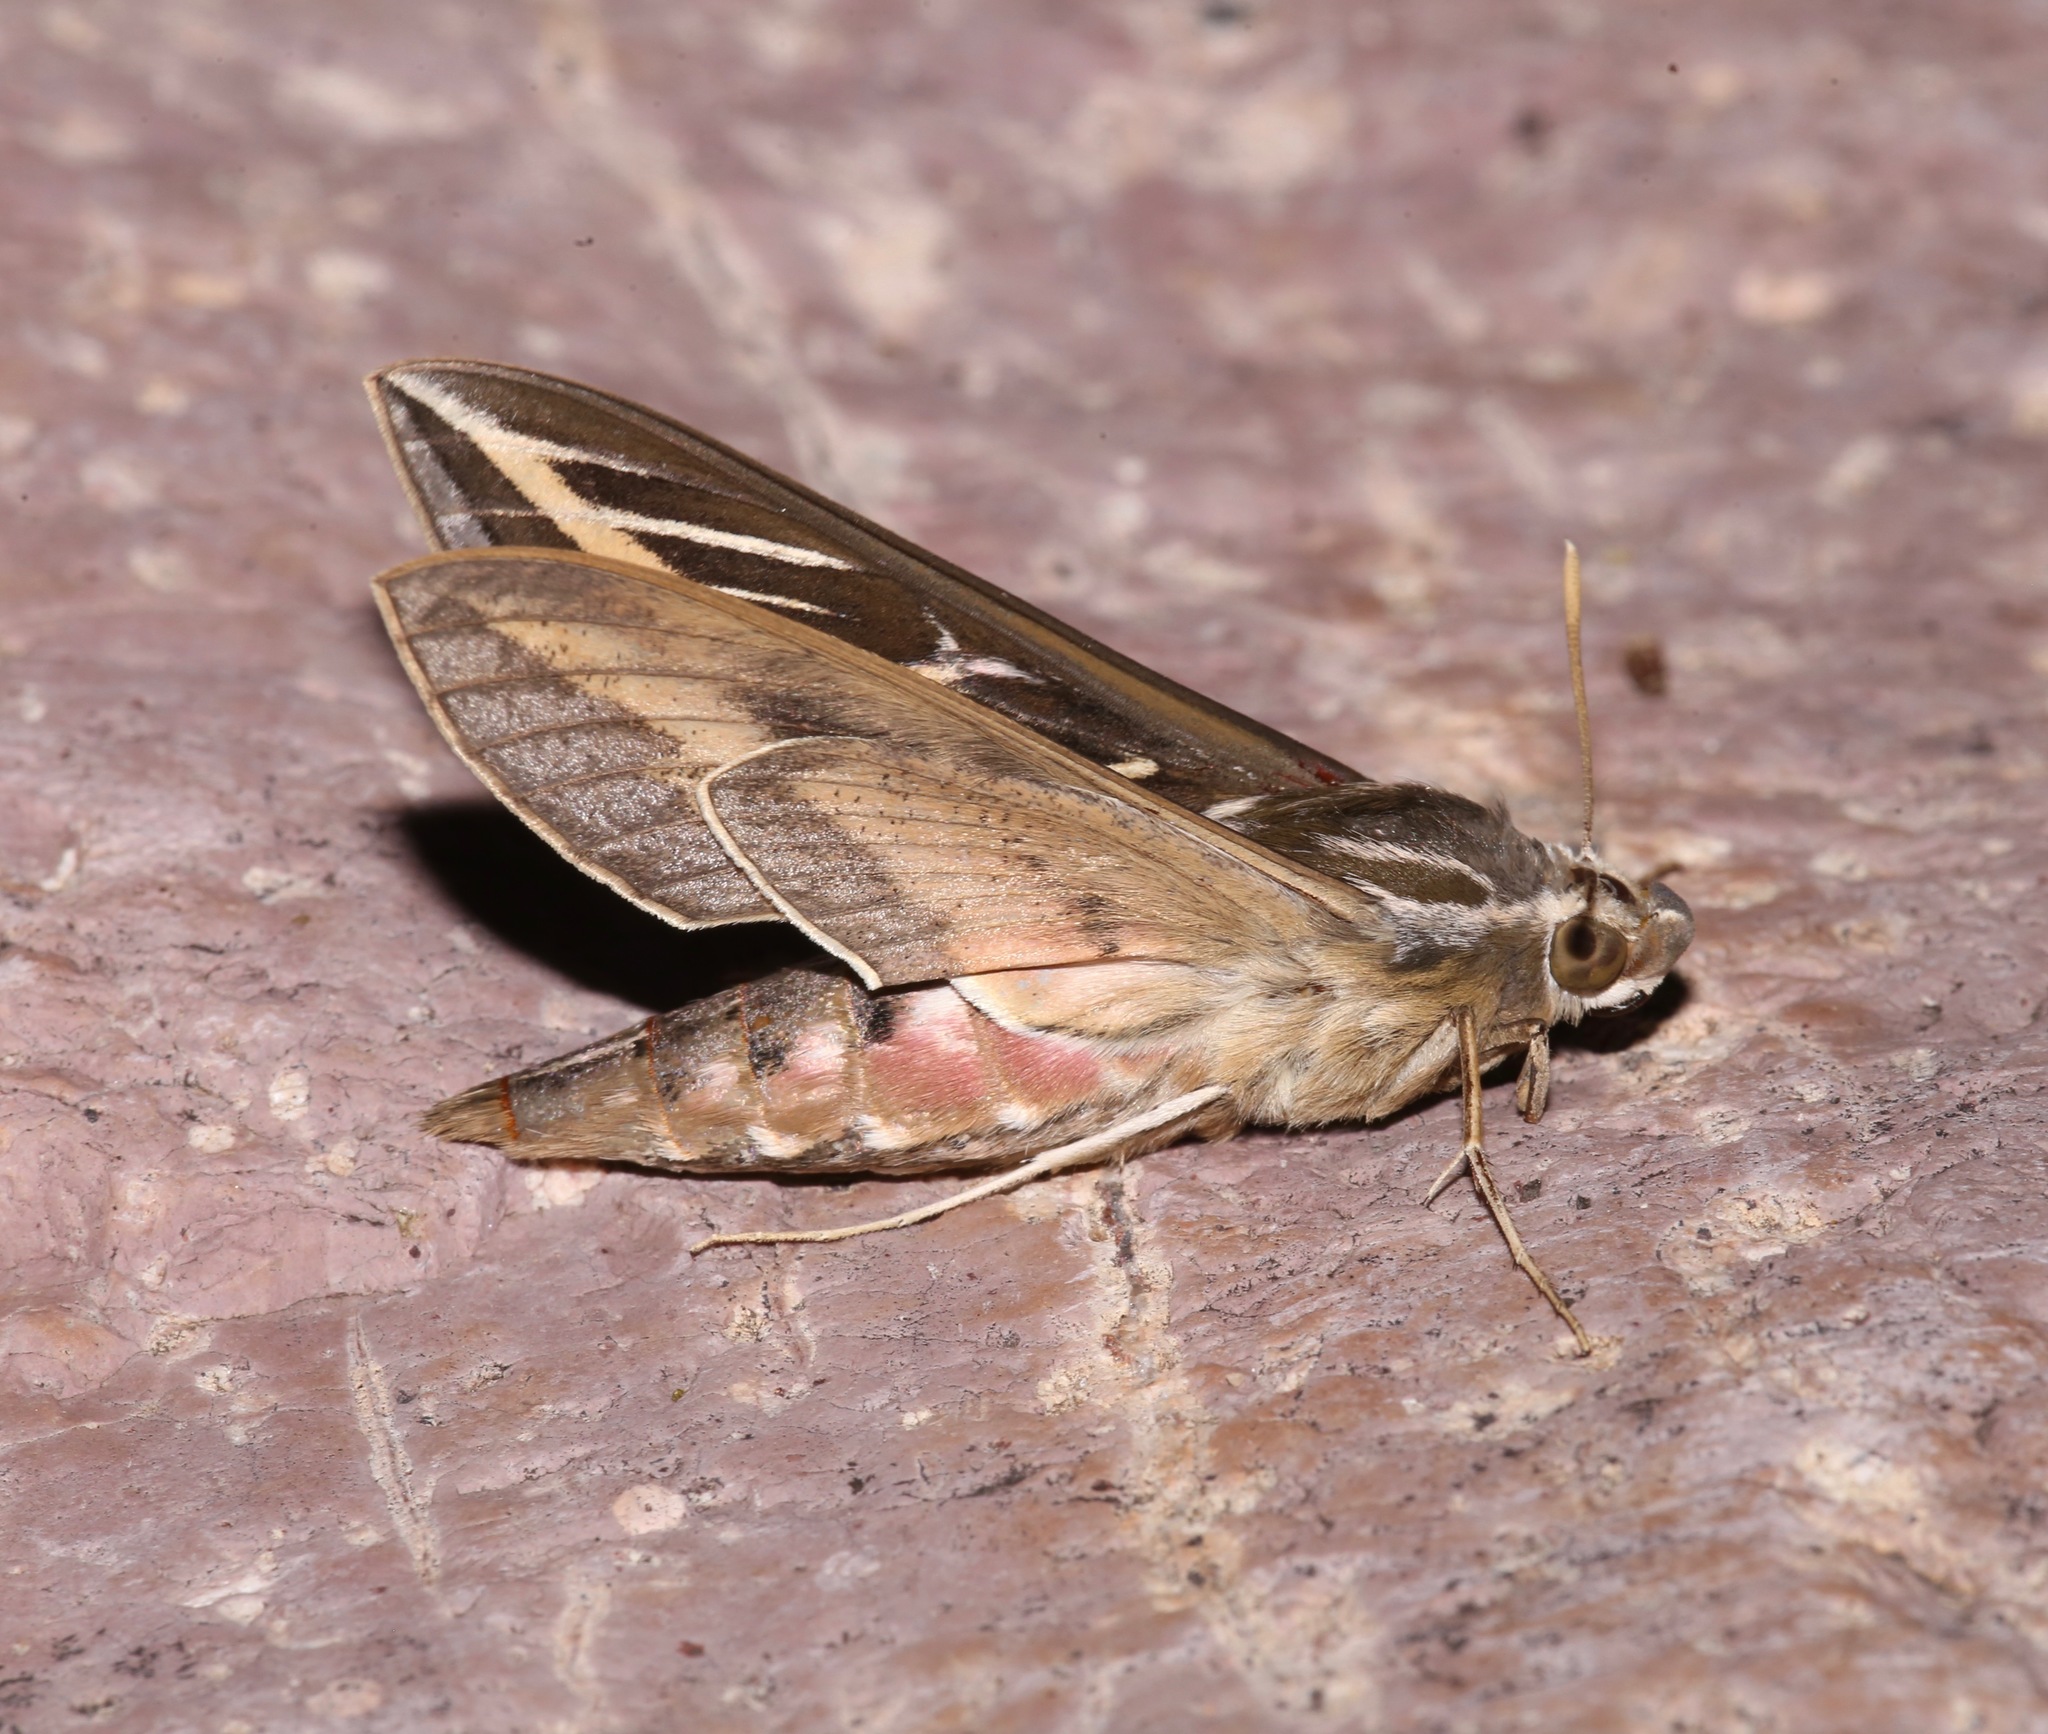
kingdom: Animalia
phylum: Arthropoda
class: Insecta
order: Lepidoptera
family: Sphingidae
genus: Hyles
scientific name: Hyles lineata
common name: White-lined sphinx
